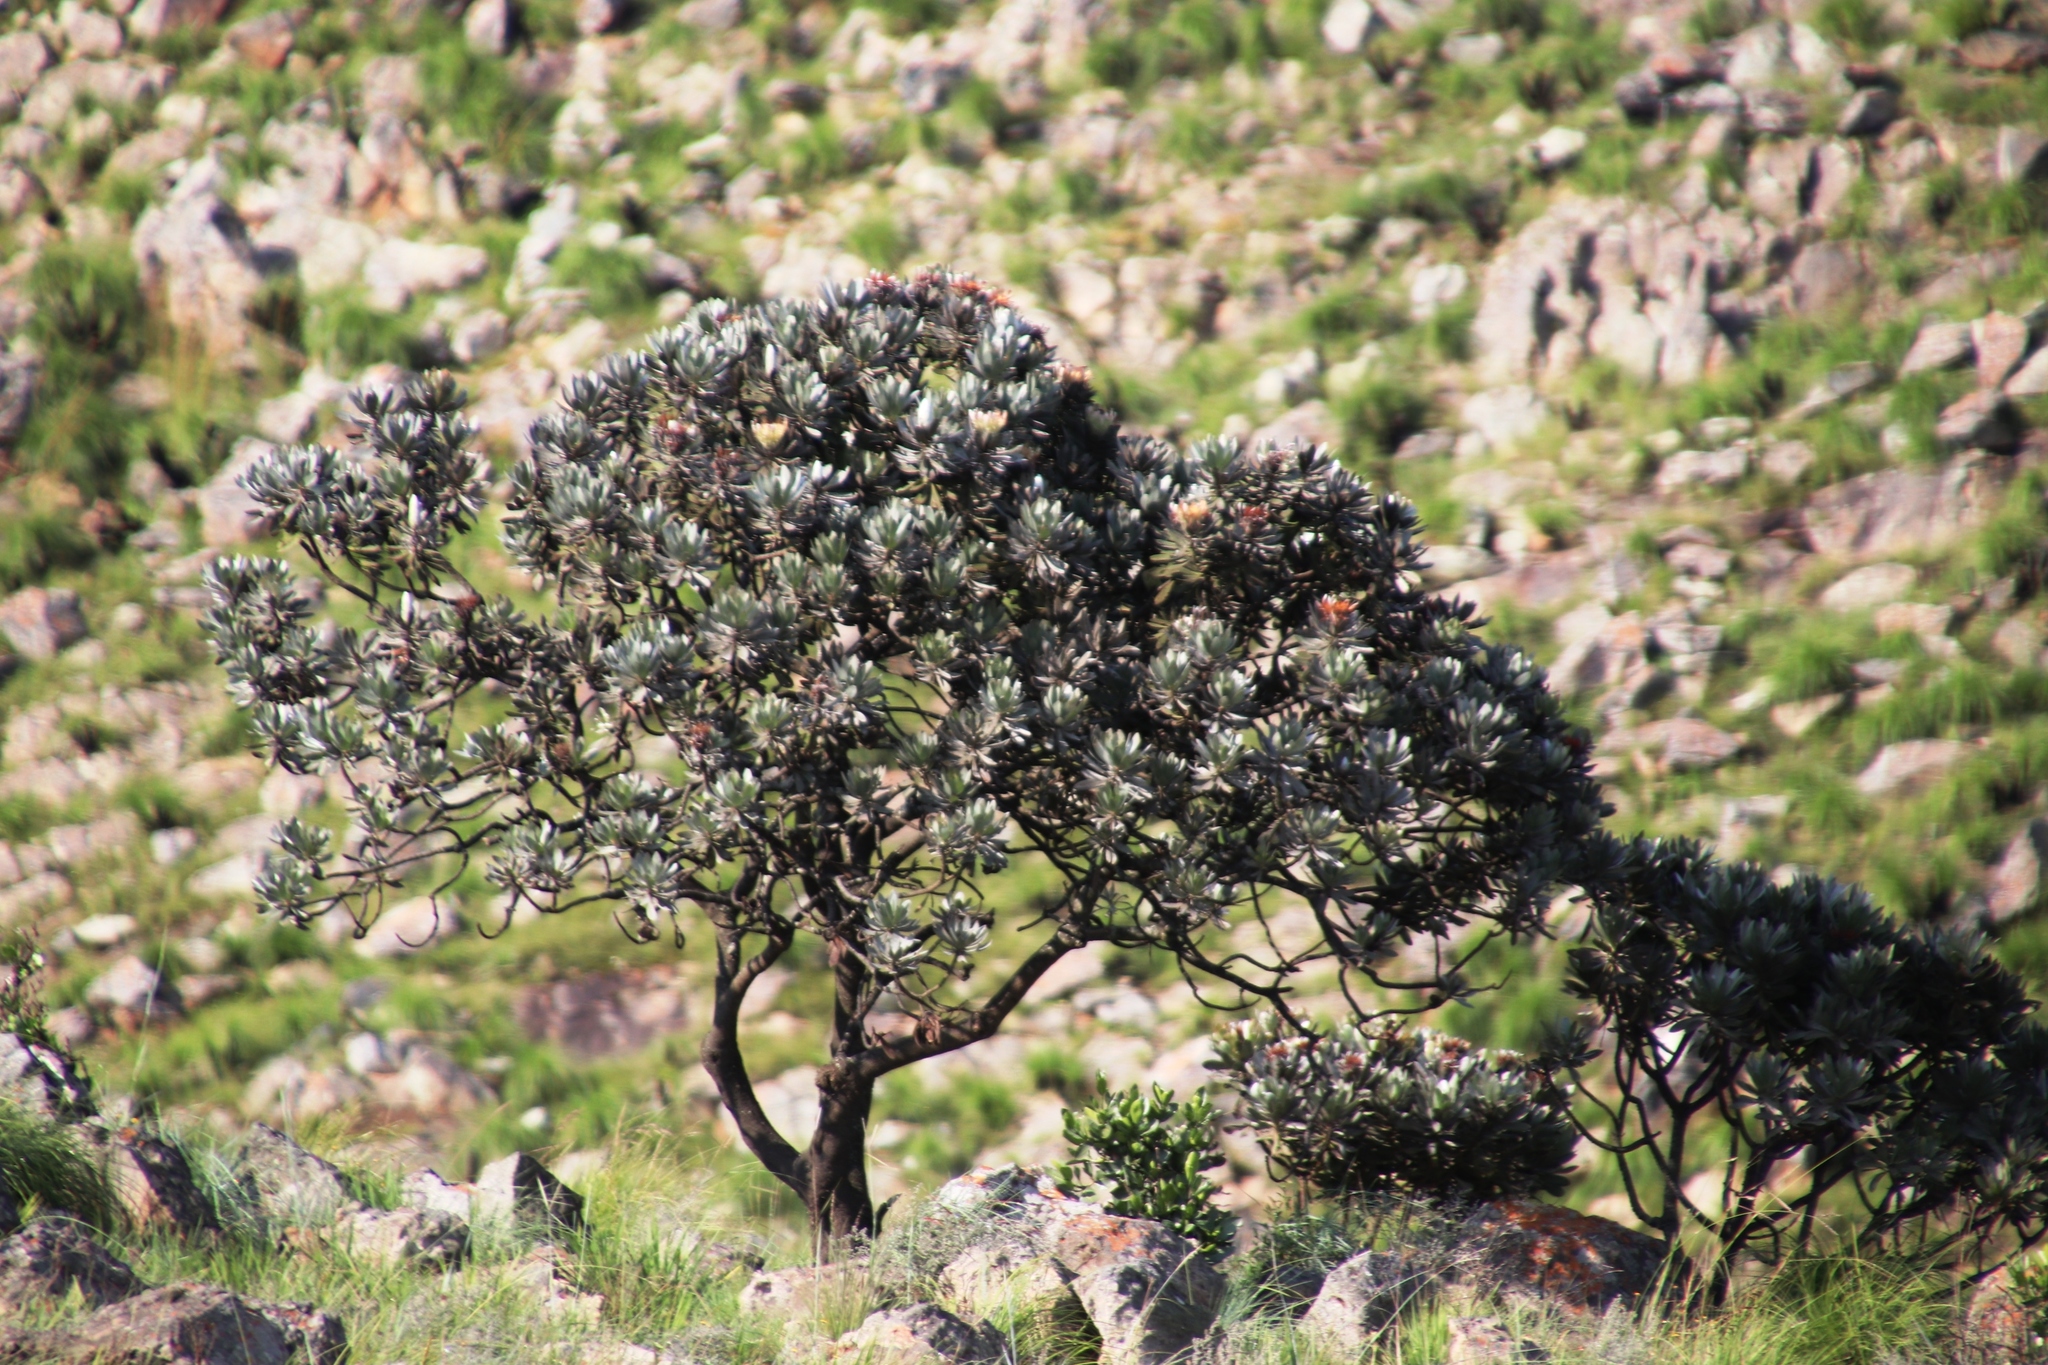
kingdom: Plantae
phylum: Tracheophyta
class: Magnoliopsida
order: Proteales
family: Proteaceae
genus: Protea
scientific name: Protea roupelliae
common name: Silver sugarbush
